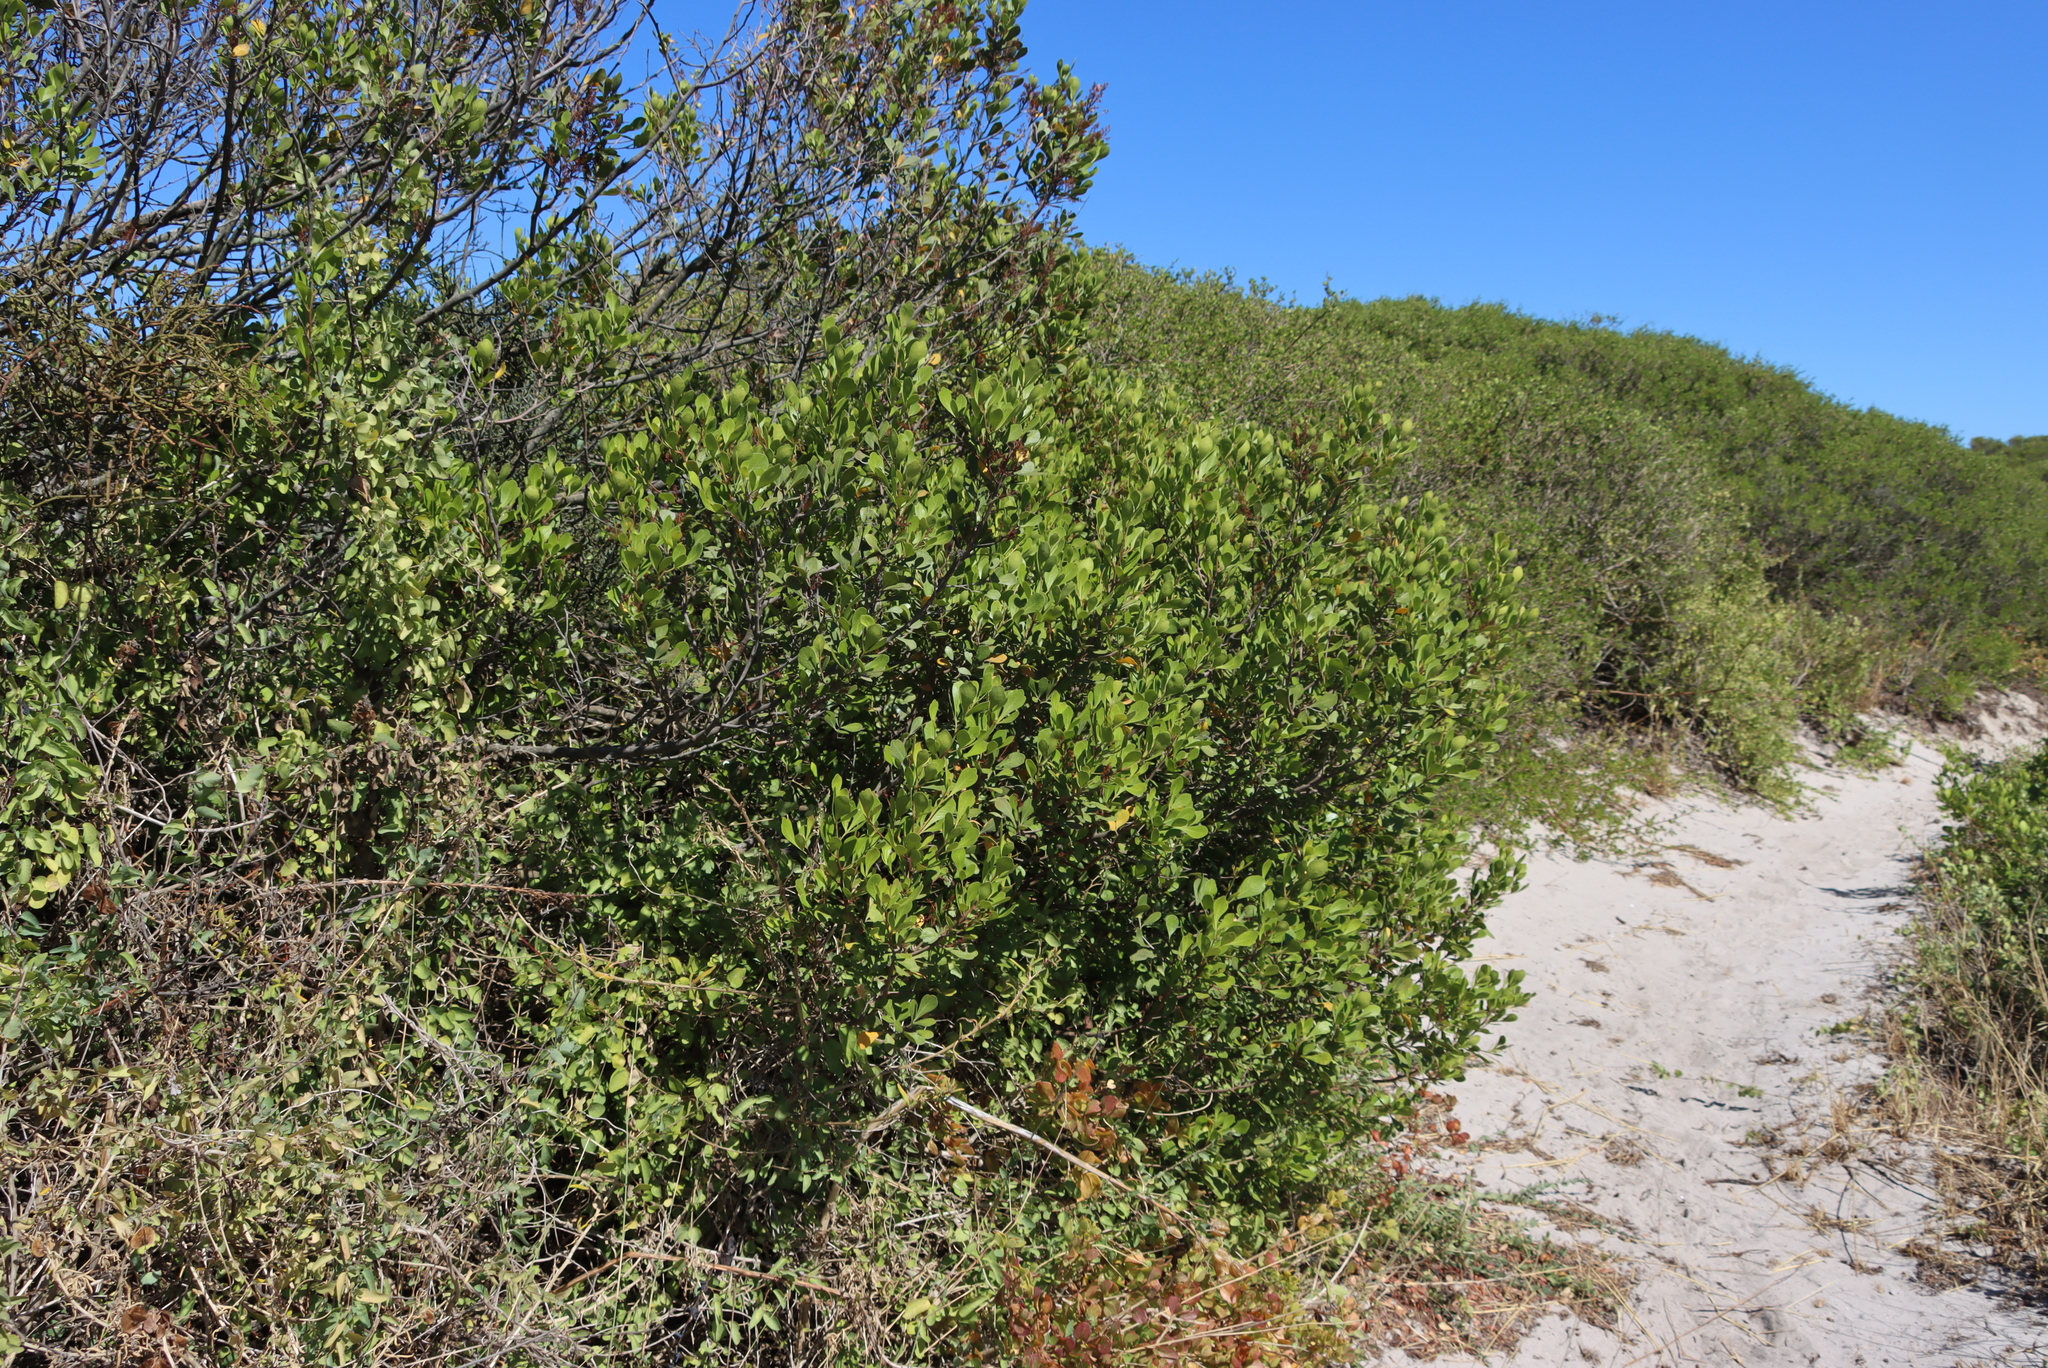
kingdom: Plantae
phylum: Tracheophyta
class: Magnoliopsida
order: Sapindales
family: Anacardiaceae
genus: Searsia
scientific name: Searsia lucida
